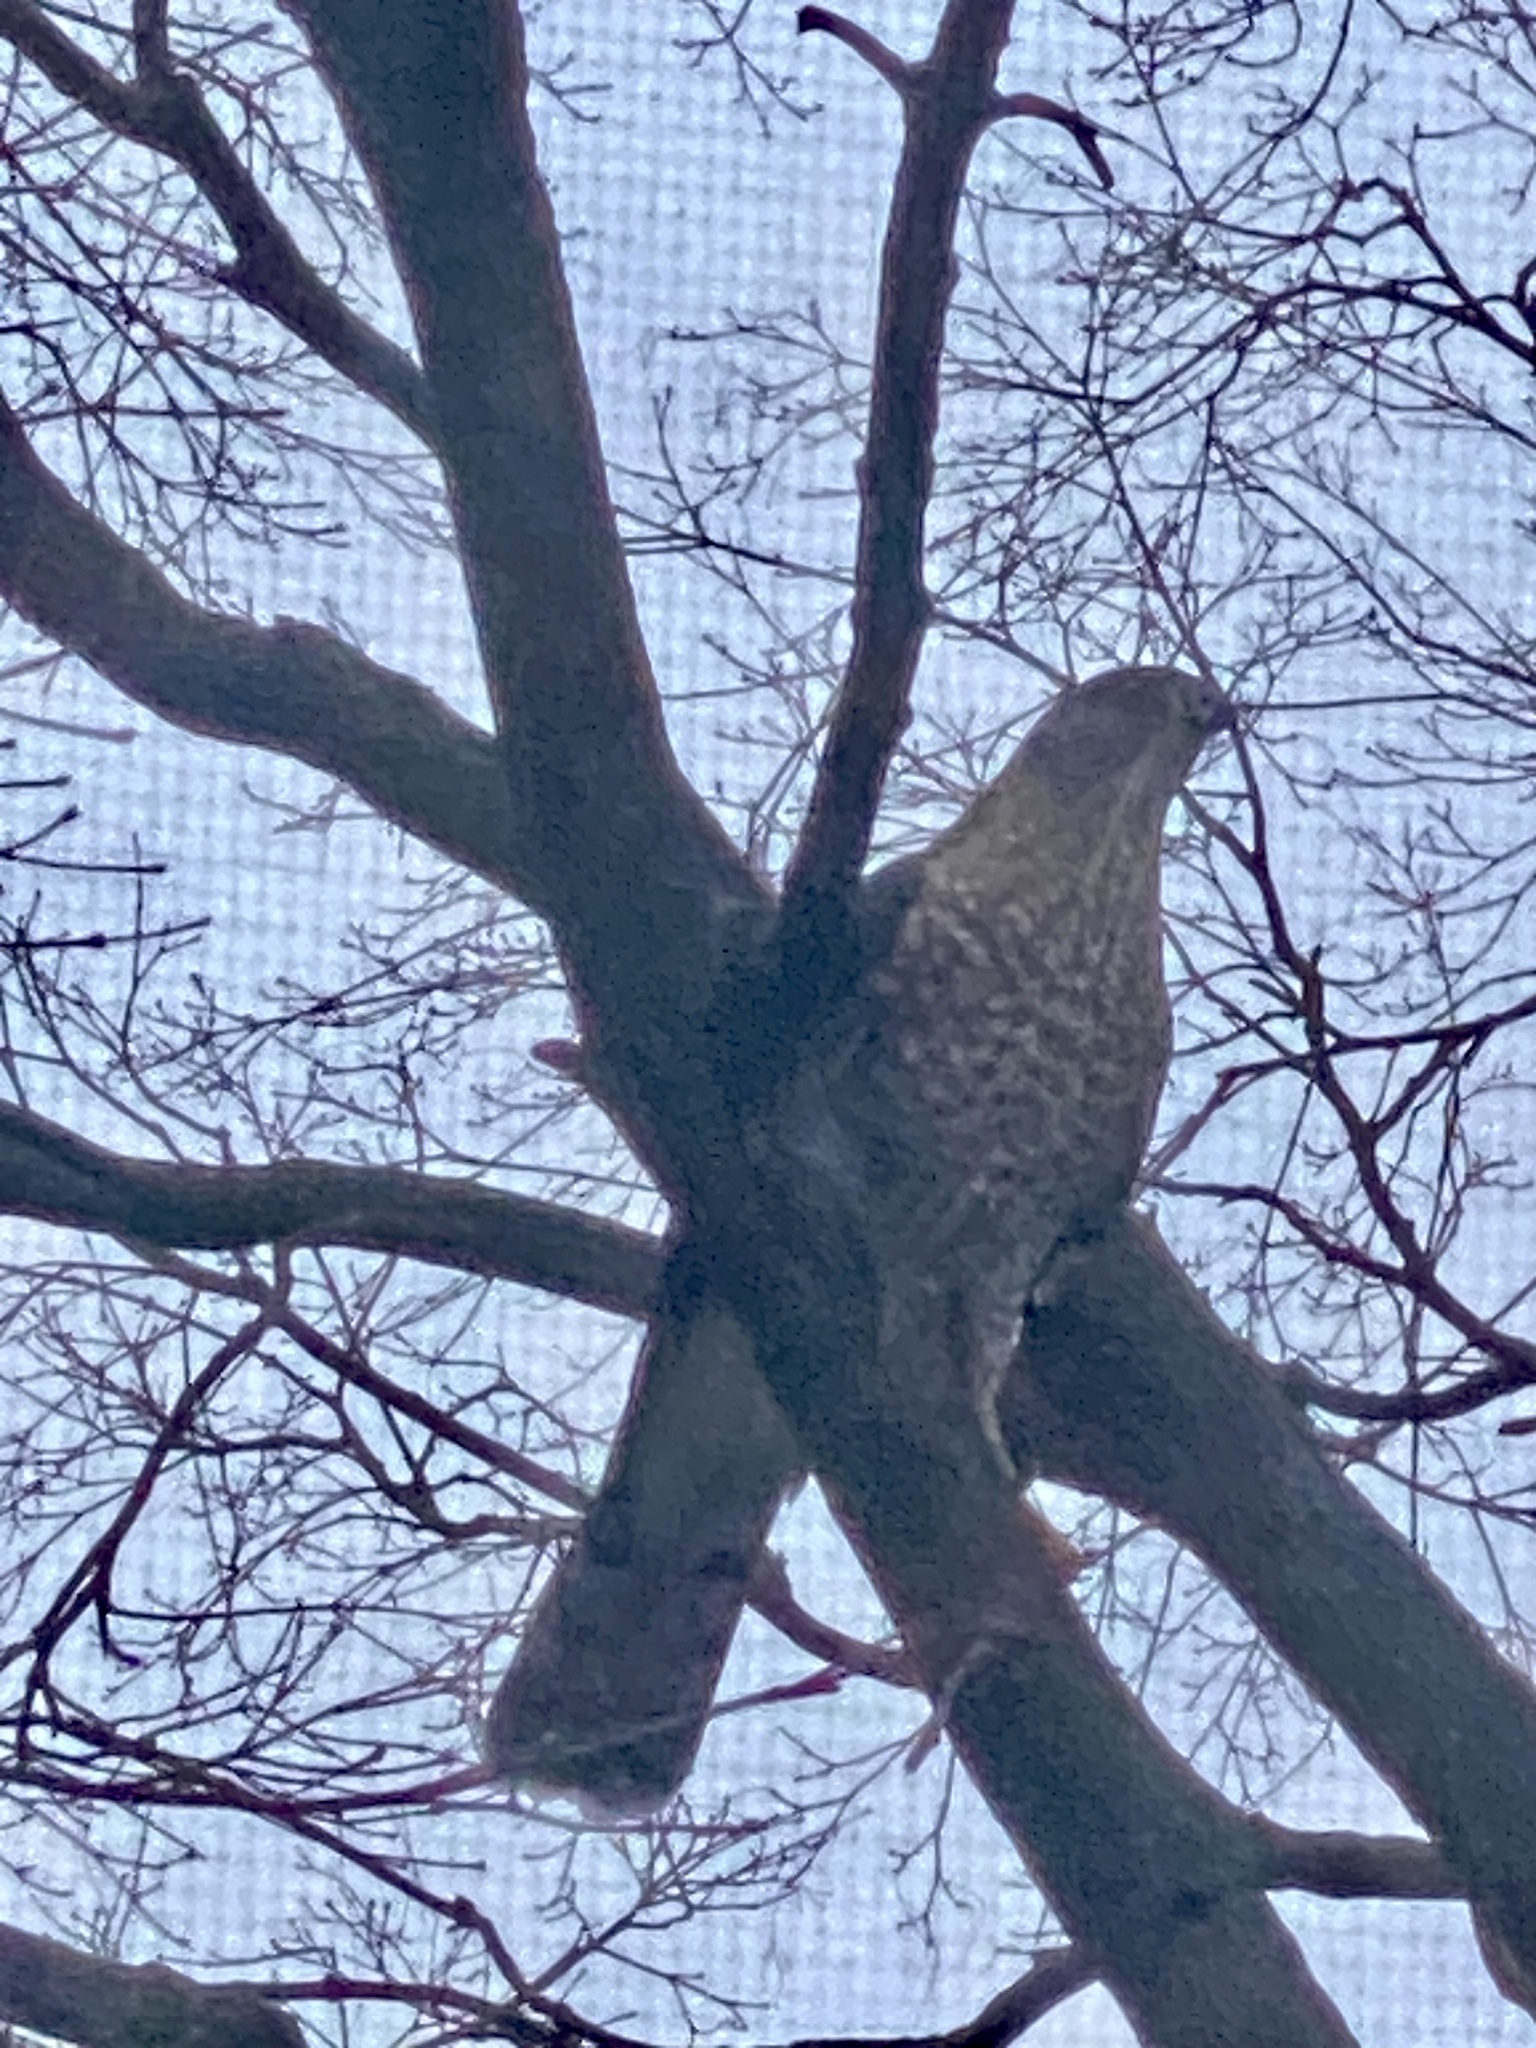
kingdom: Animalia
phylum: Chordata
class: Aves
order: Accipitriformes
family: Accipitridae
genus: Accipiter
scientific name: Accipiter cooperii
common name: Cooper's hawk
